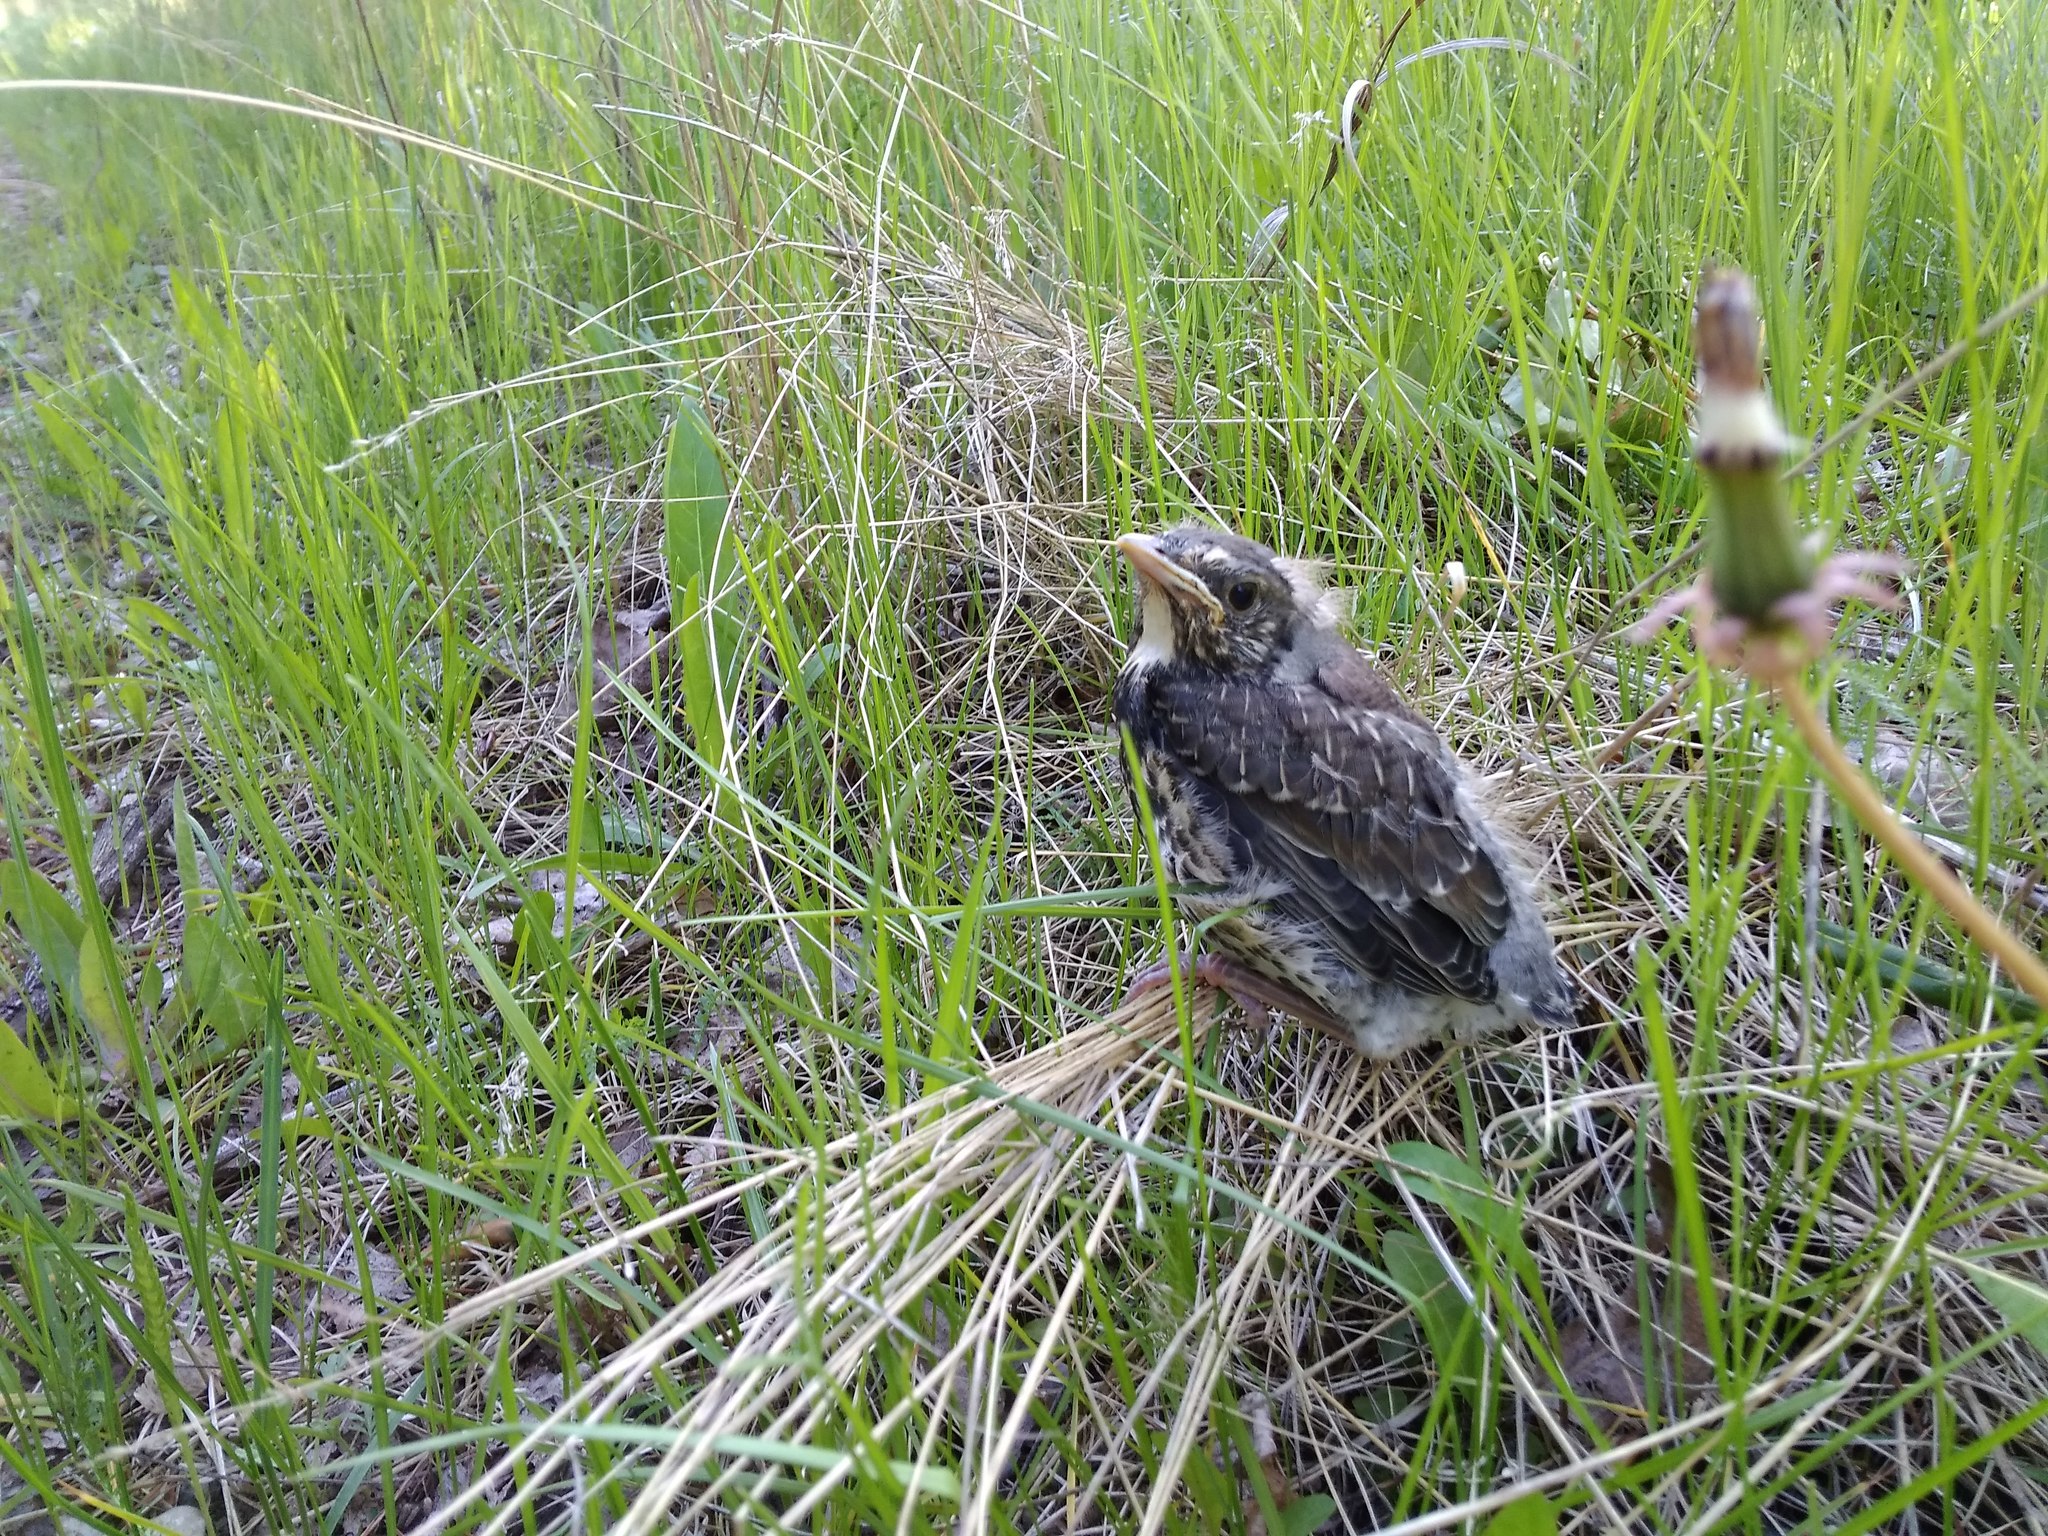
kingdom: Animalia
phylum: Chordata
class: Aves
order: Passeriformes
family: Turdidae
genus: Turdus
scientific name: Turdus pilaris
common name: Fieldfare
